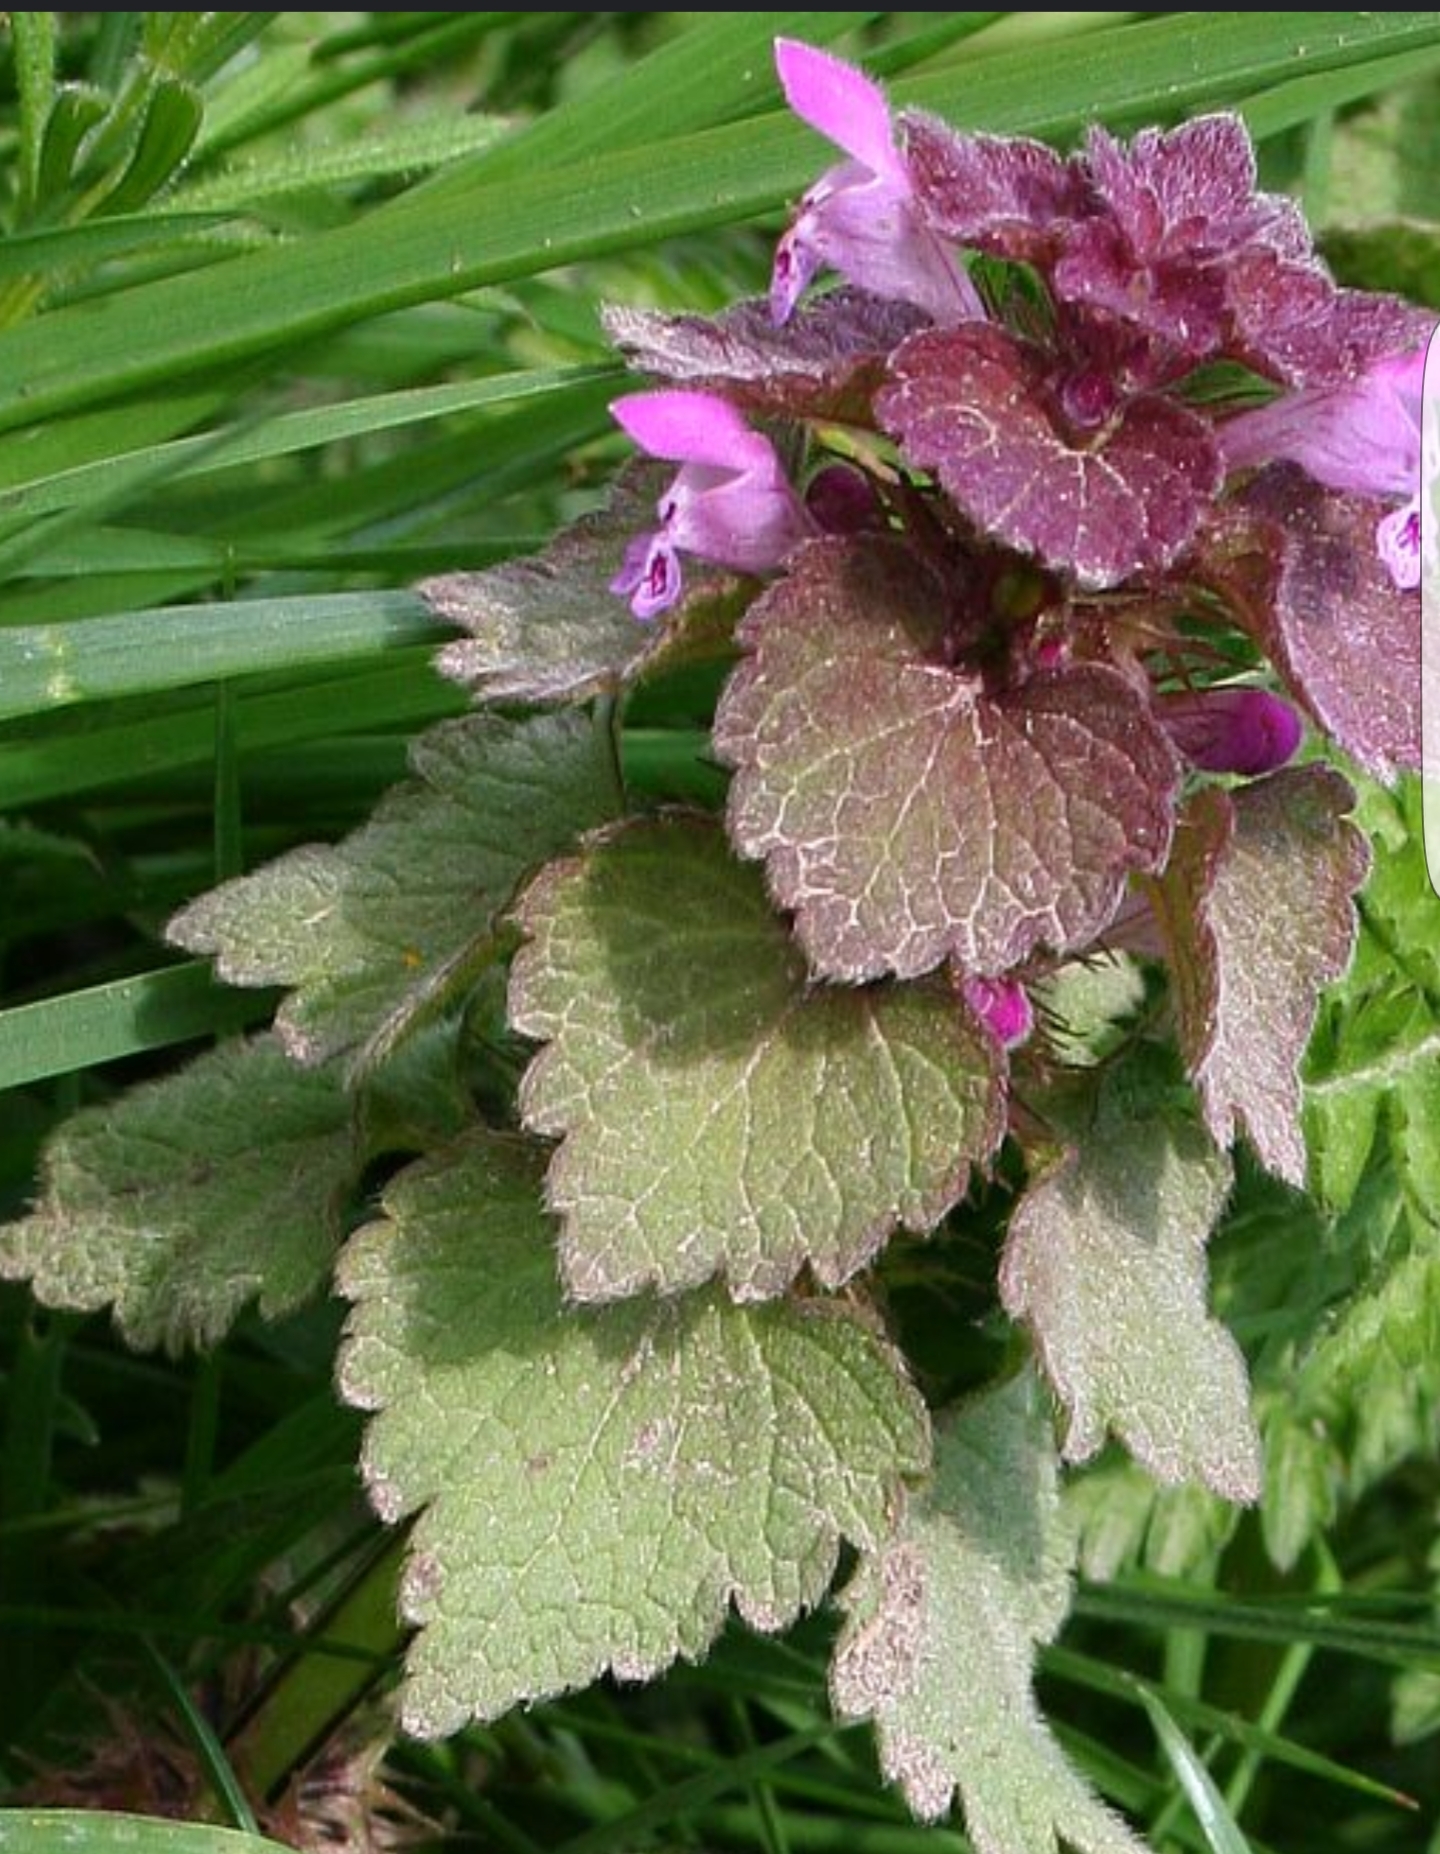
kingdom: Plantae
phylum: Tracheophyta
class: Magnoliopsida
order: Lamiales
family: Lamiaceae
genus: Lamium
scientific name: Lamium purpureum
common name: Red dead-nettle
